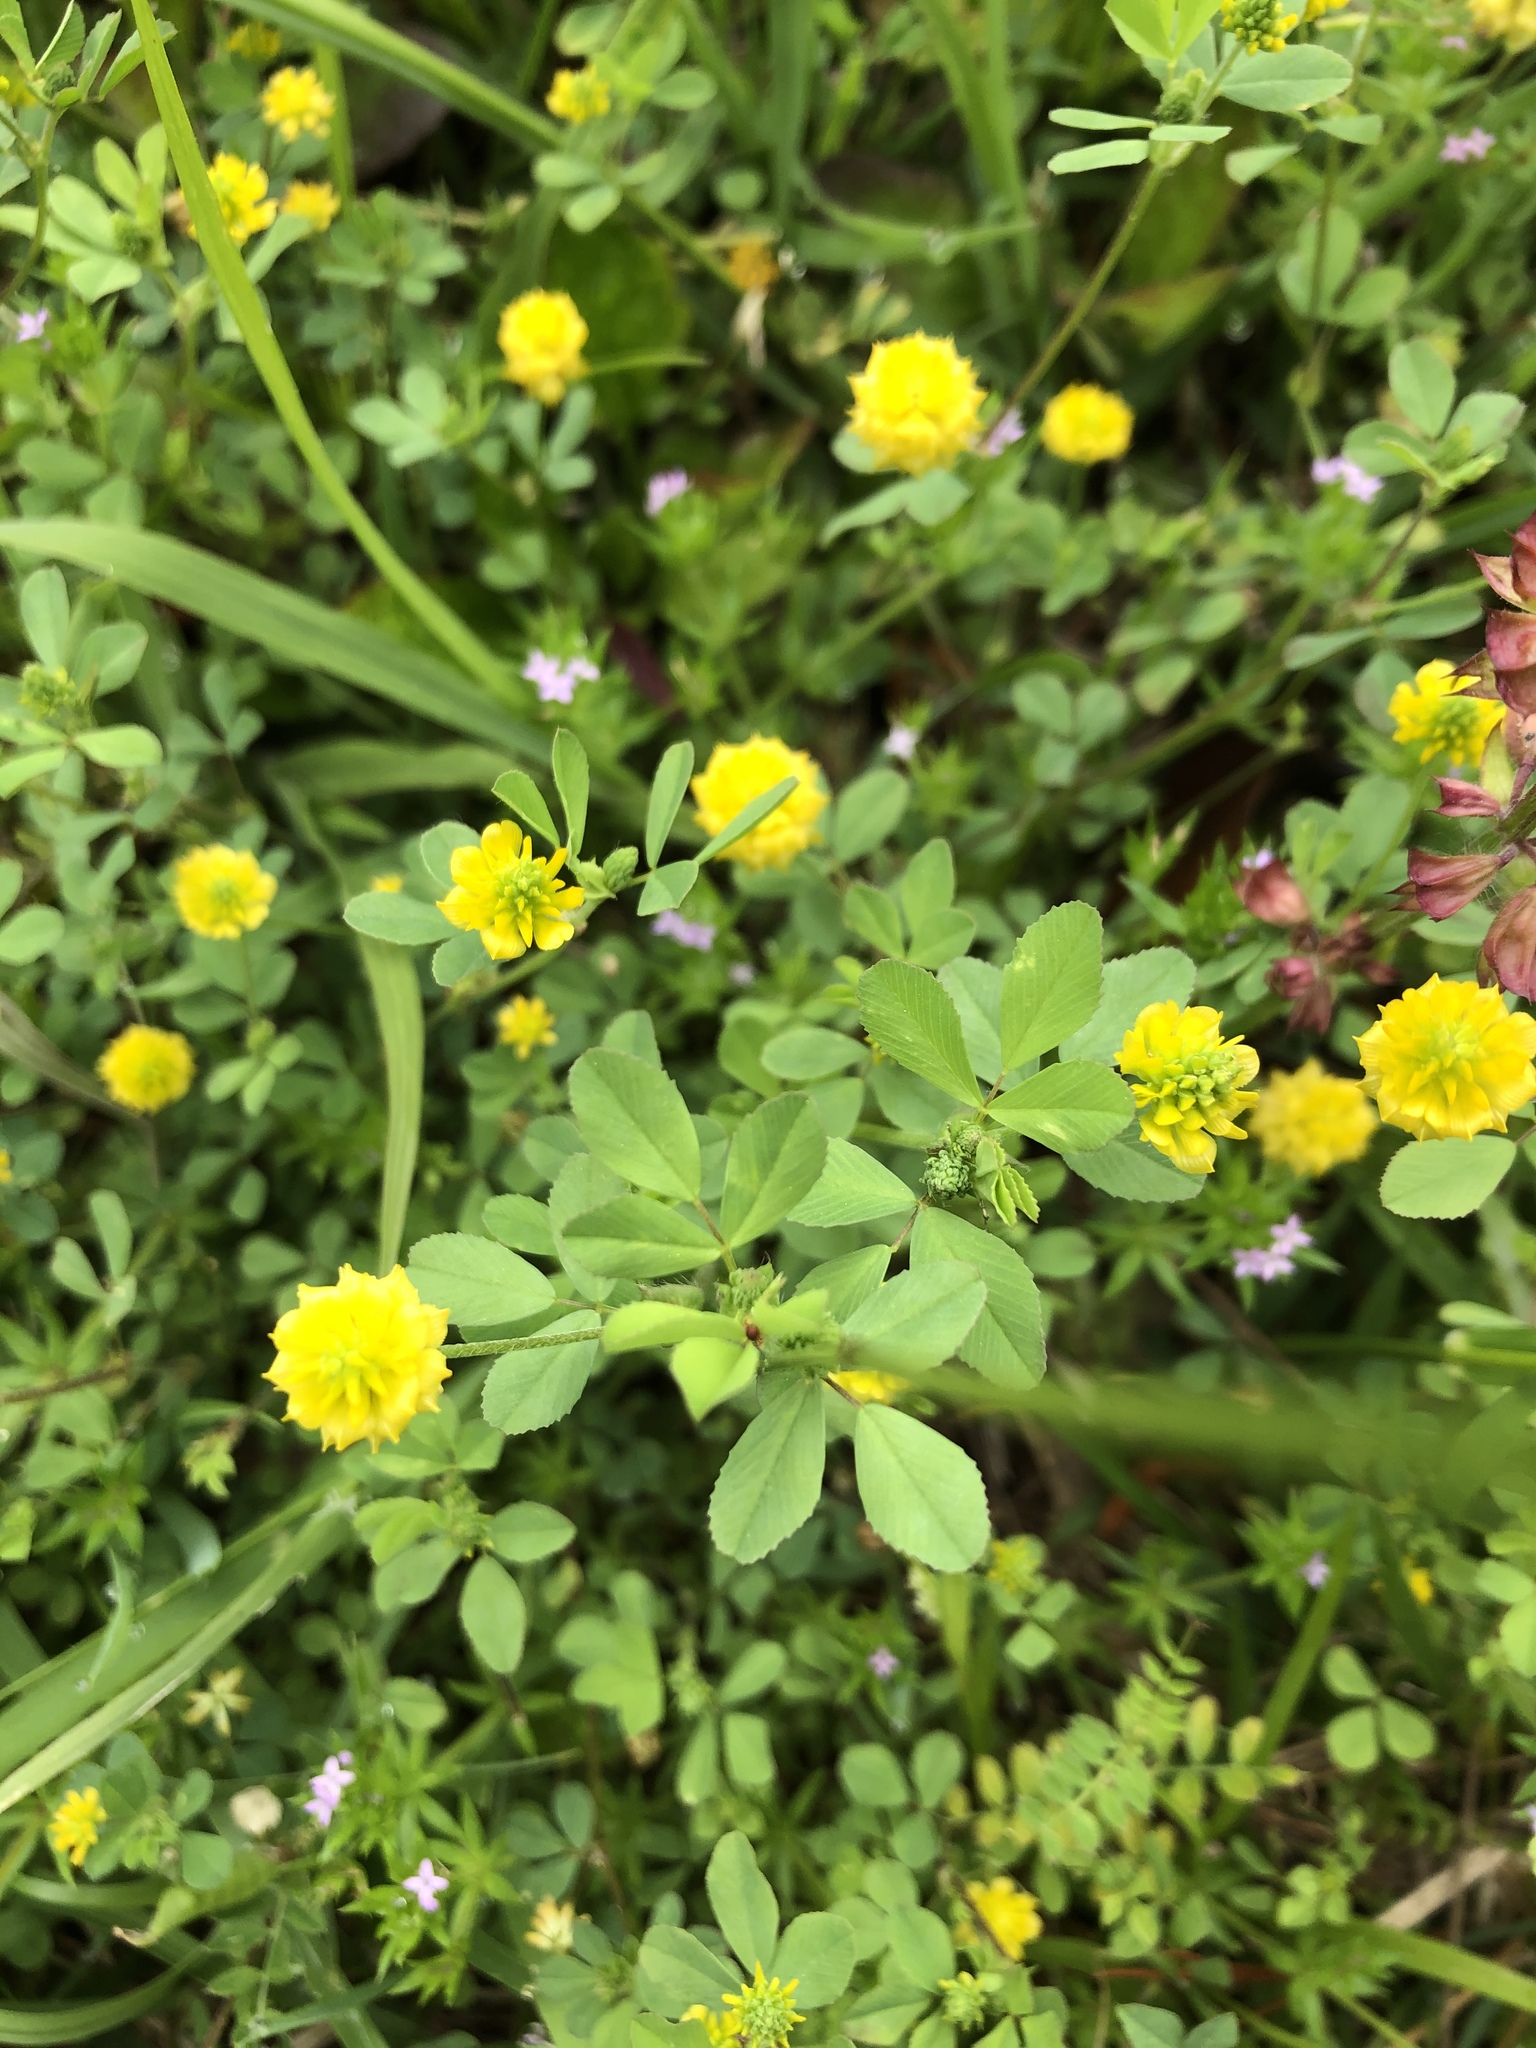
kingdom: Plantae
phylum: Tracheophyta
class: Magnoliopsida
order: Fabales
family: Fabaceae
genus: Trifolium
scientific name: Trifolium campestre
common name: Field clover
